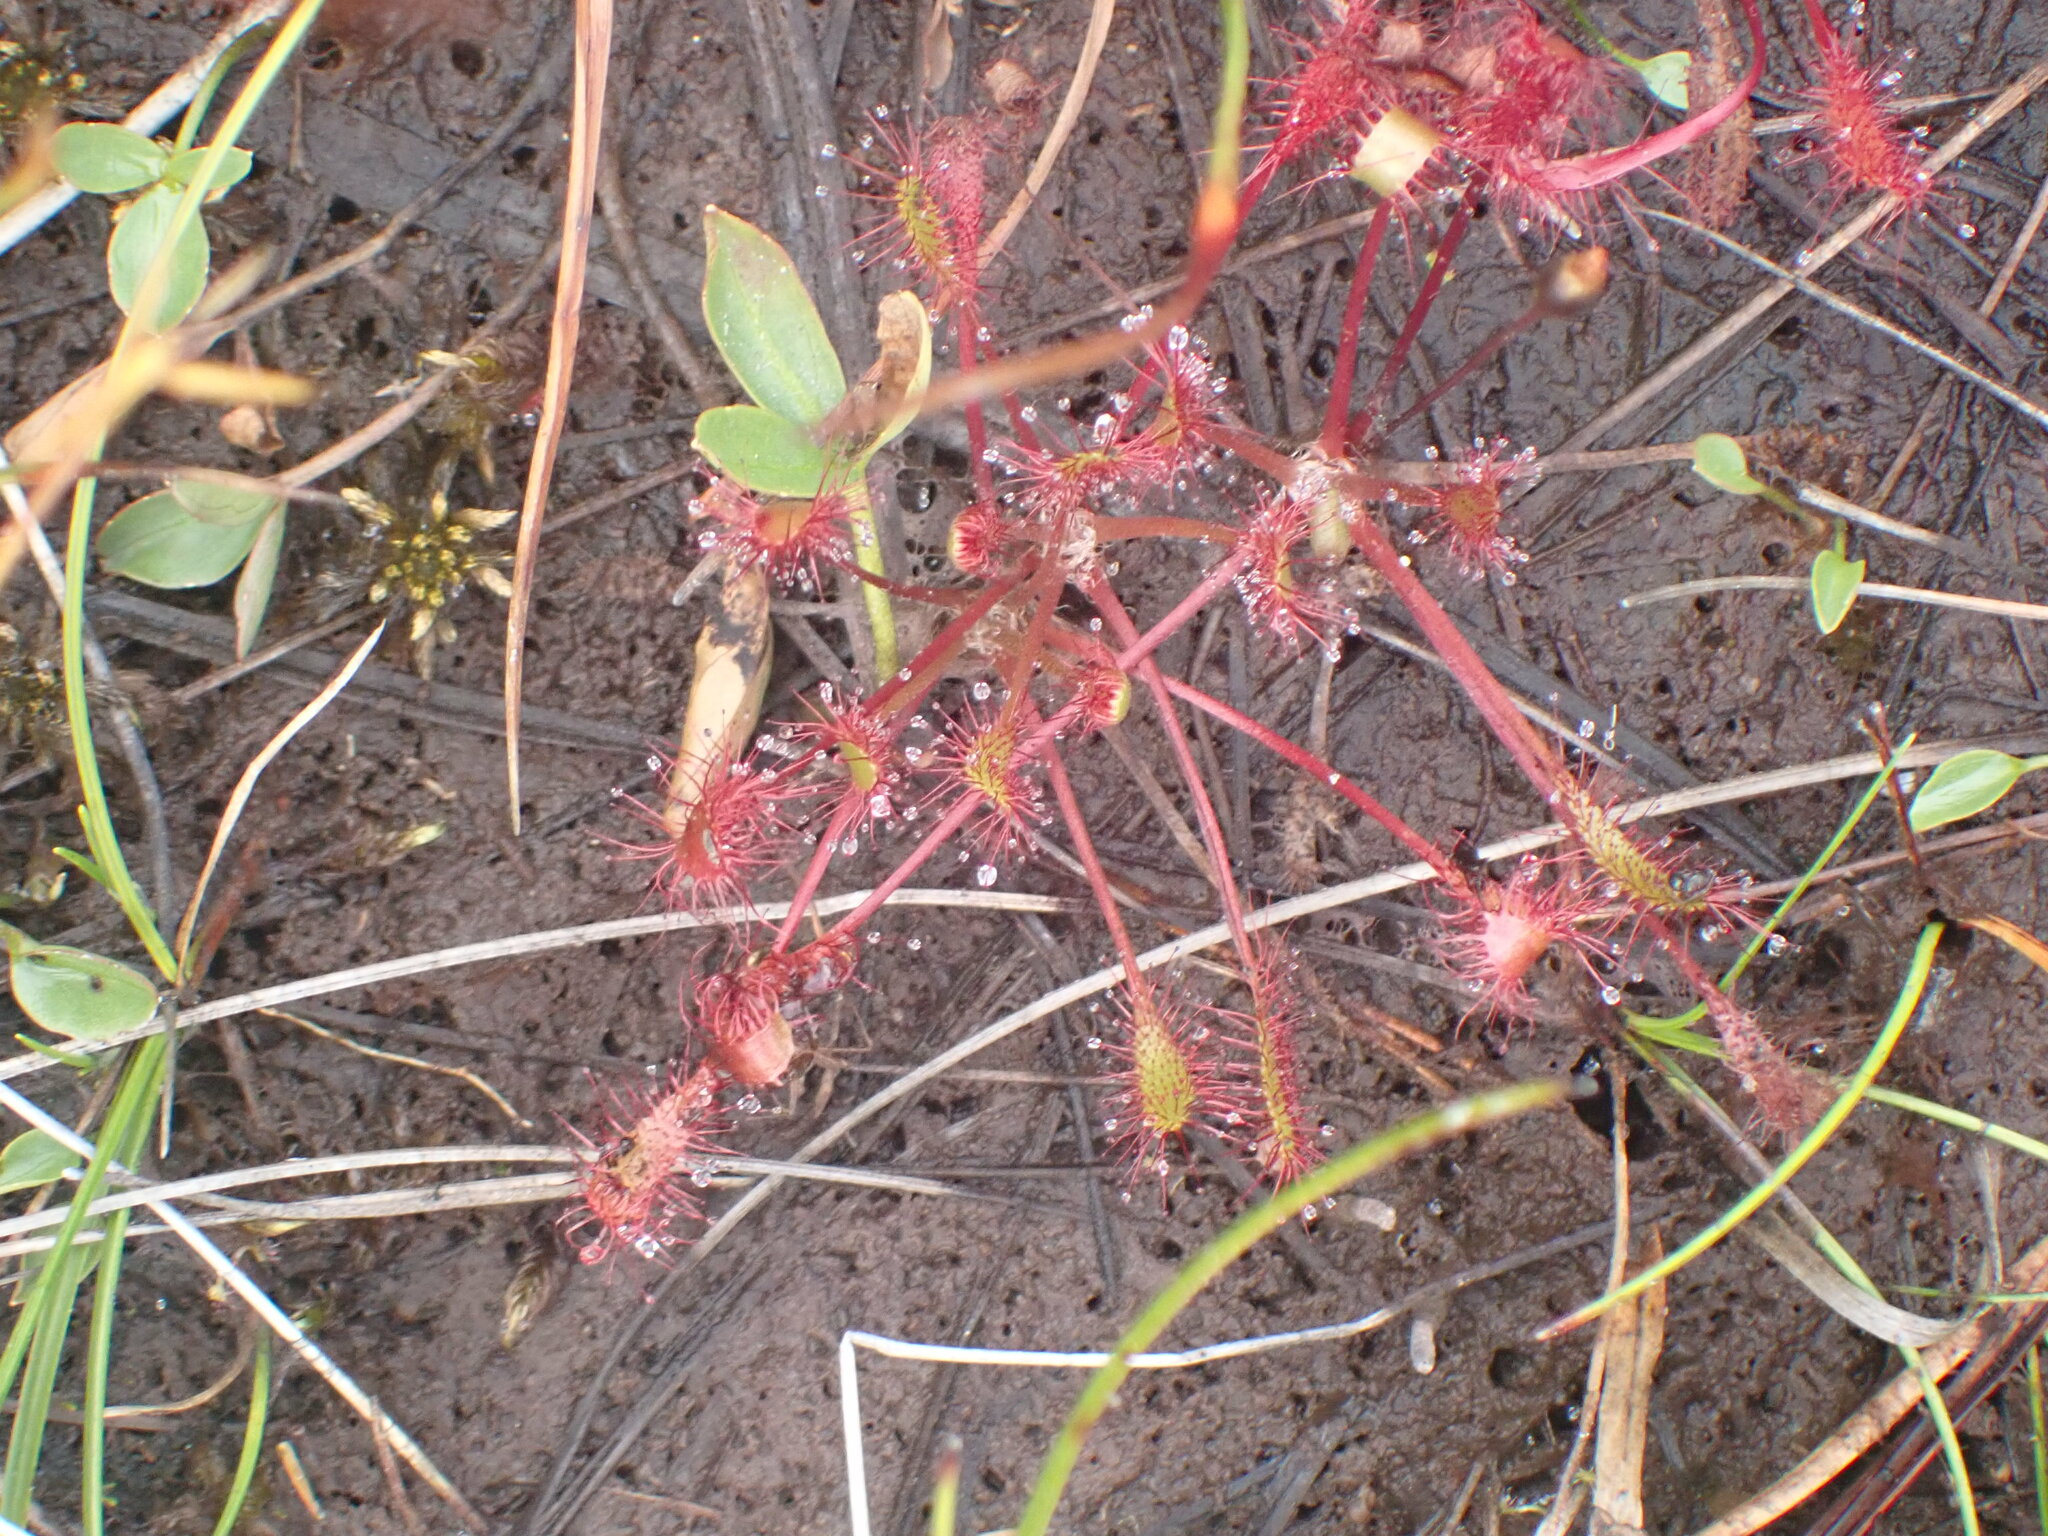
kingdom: Plantae
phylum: Tracheophyta
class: Magnoliopsida
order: Caryophyllales
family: Droseraceae
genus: Drosera
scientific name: Drosera anglica
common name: Great sundew
